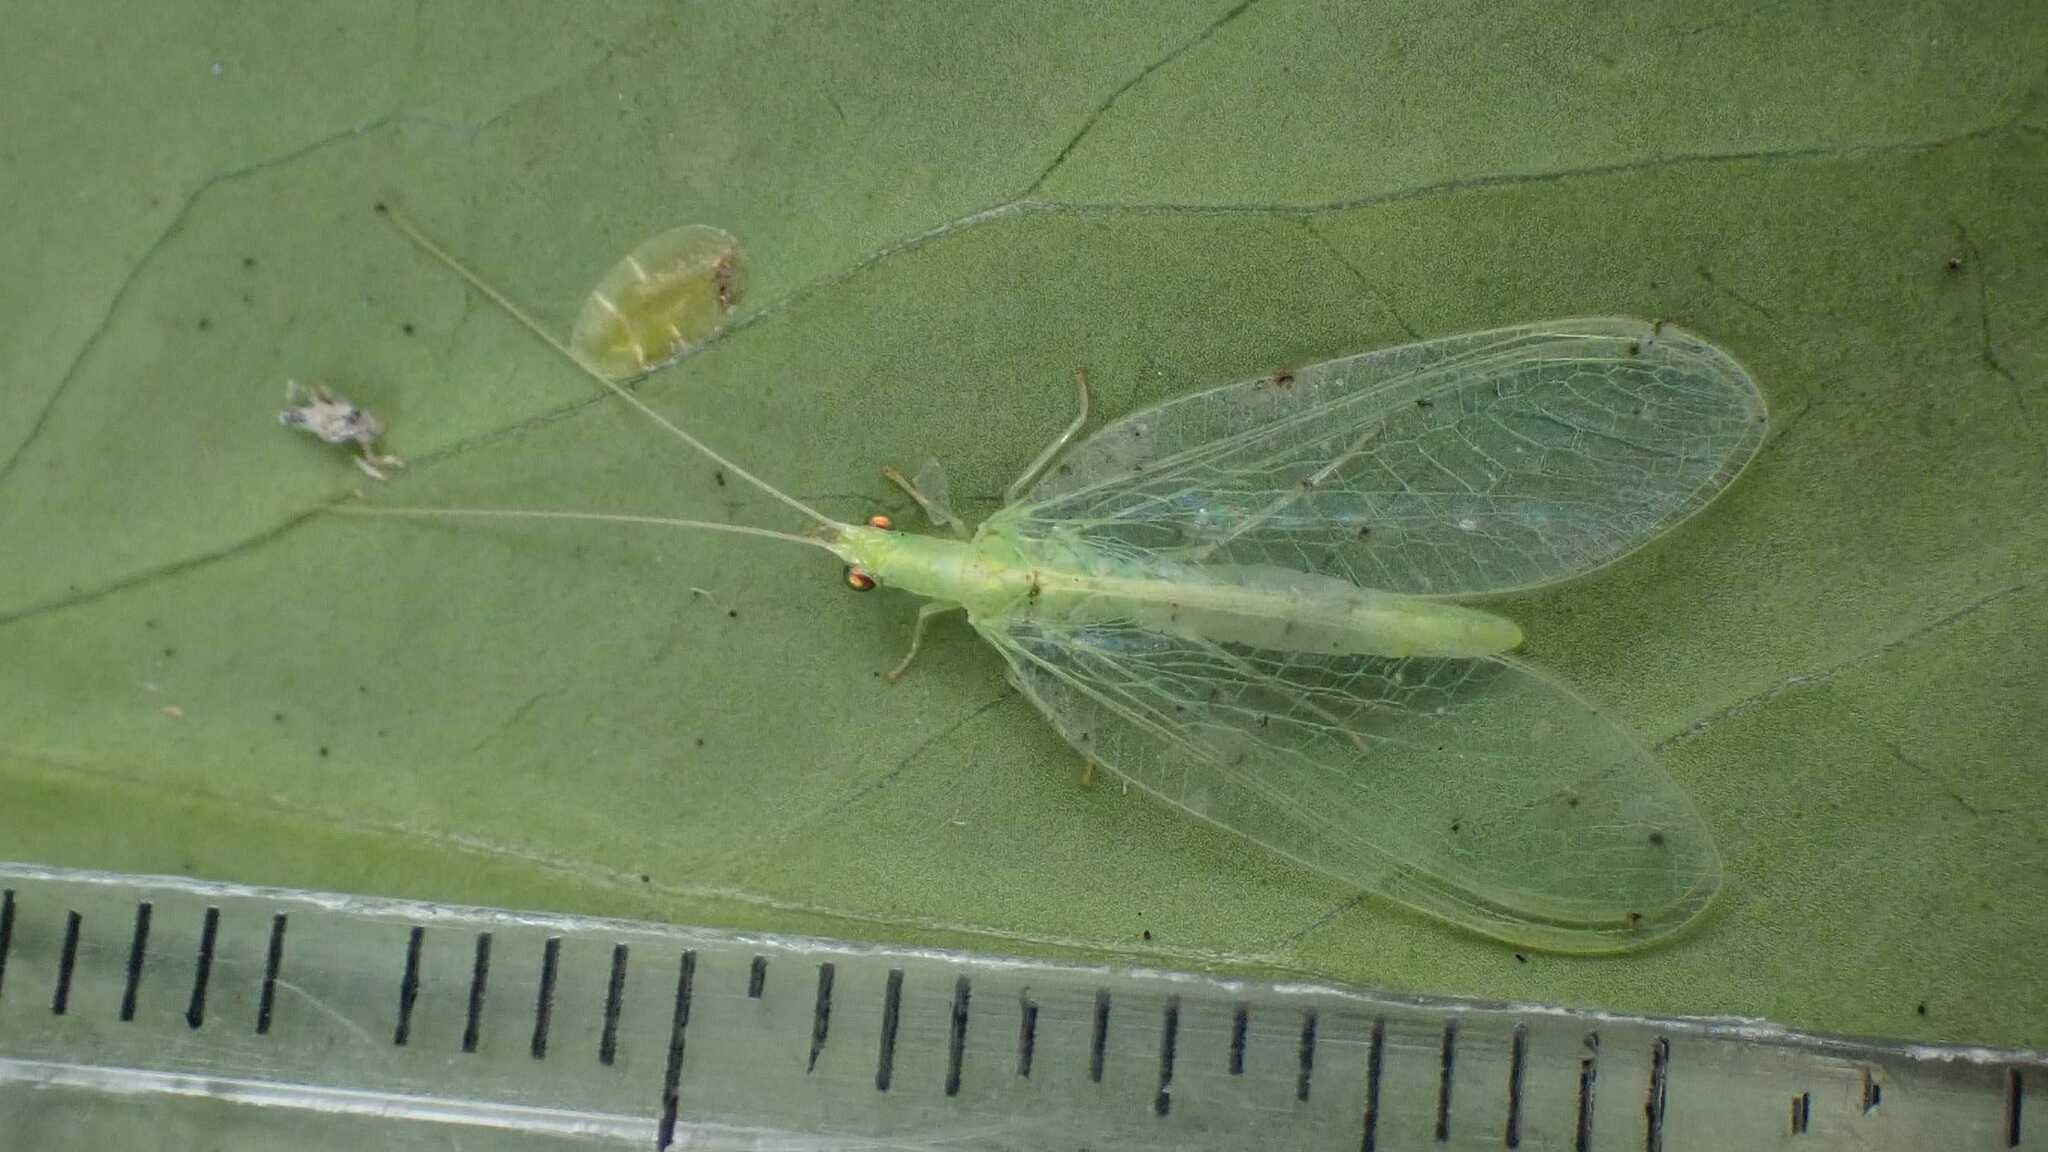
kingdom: Animalia
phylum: Arthropoda
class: Insecta
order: Neuroptera
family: Chrysopidae
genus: Chrysoperla
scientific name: Chrysoperla
